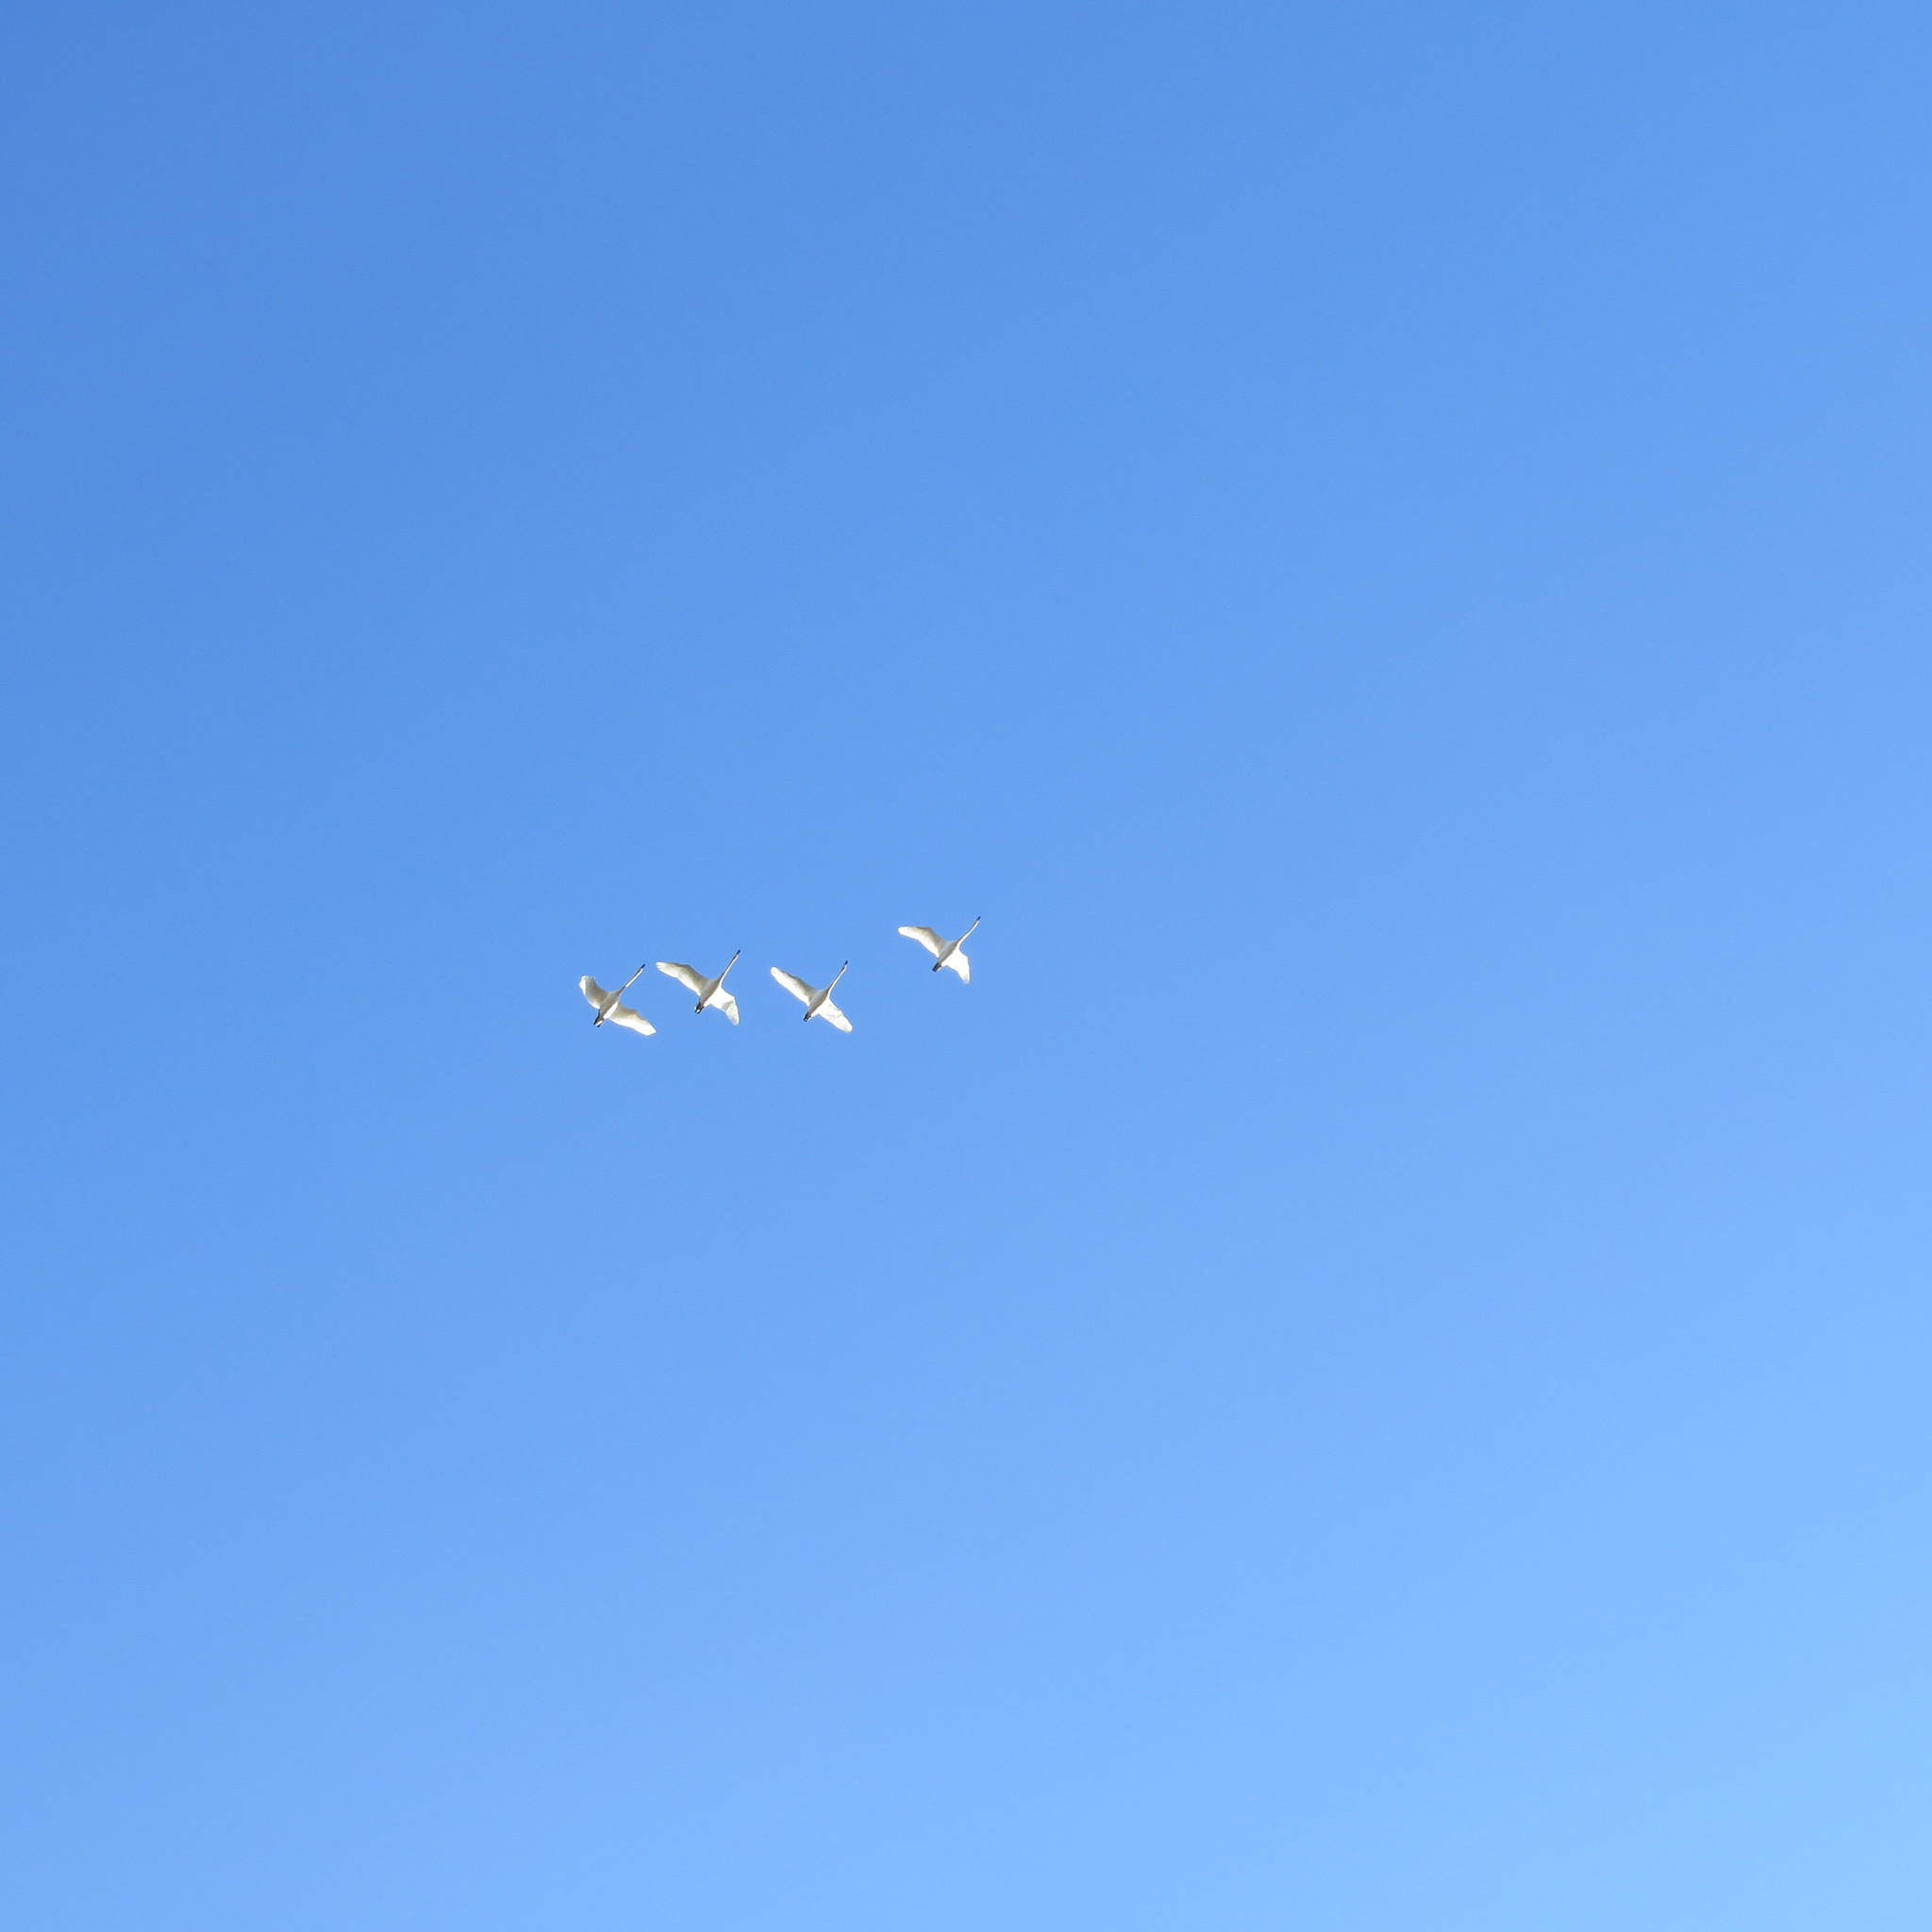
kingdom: Animalia
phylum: Chordata
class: Aves
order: Anseriformes
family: Anatidae
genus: Cygnus
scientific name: Cygnus cygnus
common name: Whooper swan
